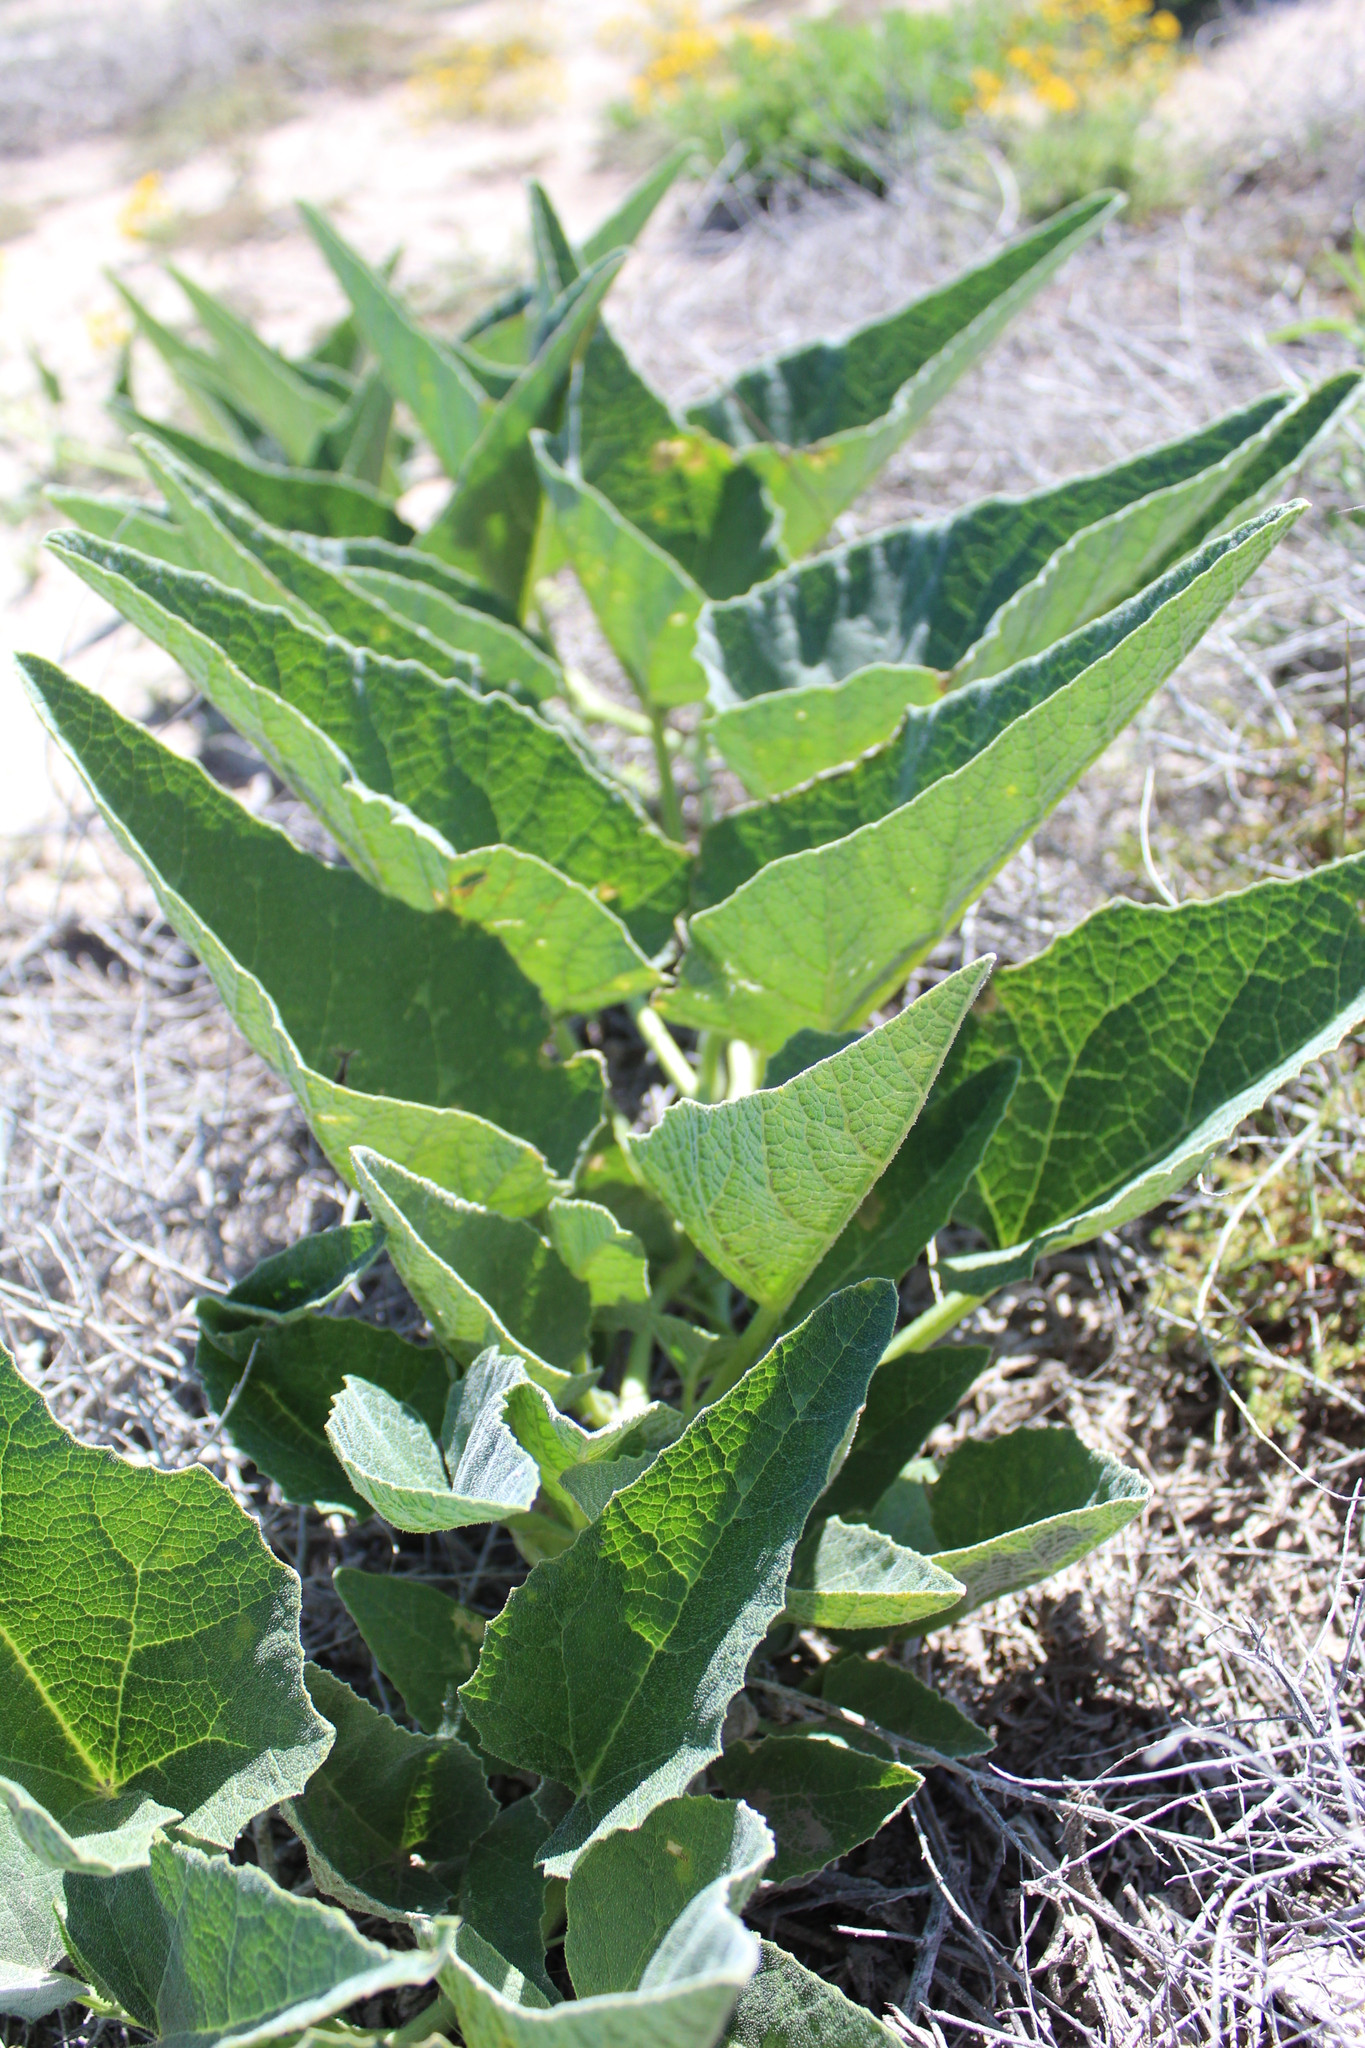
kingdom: Plantae
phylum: Tracheophyta
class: Magnoliopsida
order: Cucurbitales
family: Cucurbitaceae
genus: Cucurbita
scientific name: Cucurbita foetidissima
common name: Buffalo gourd
